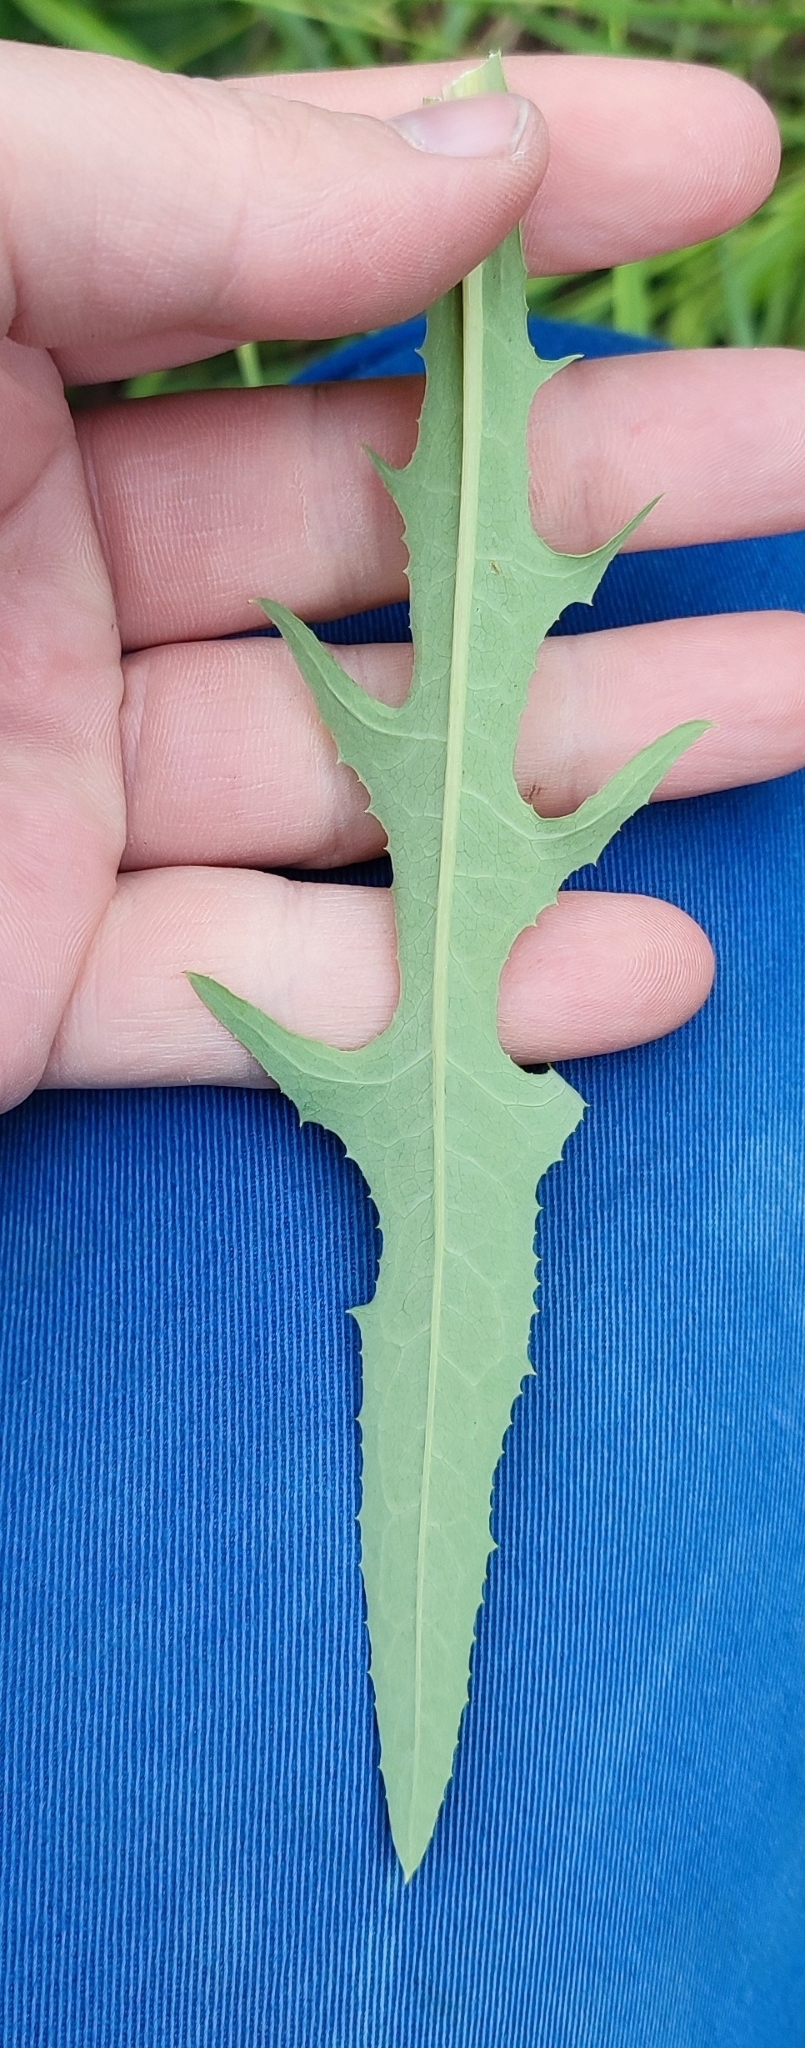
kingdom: Plantae
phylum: Tracheophyta
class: Magnoliopsida
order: Asterales
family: Asteraceae
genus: Lactuca
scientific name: Lactuca tatarica
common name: Blue lettuce
